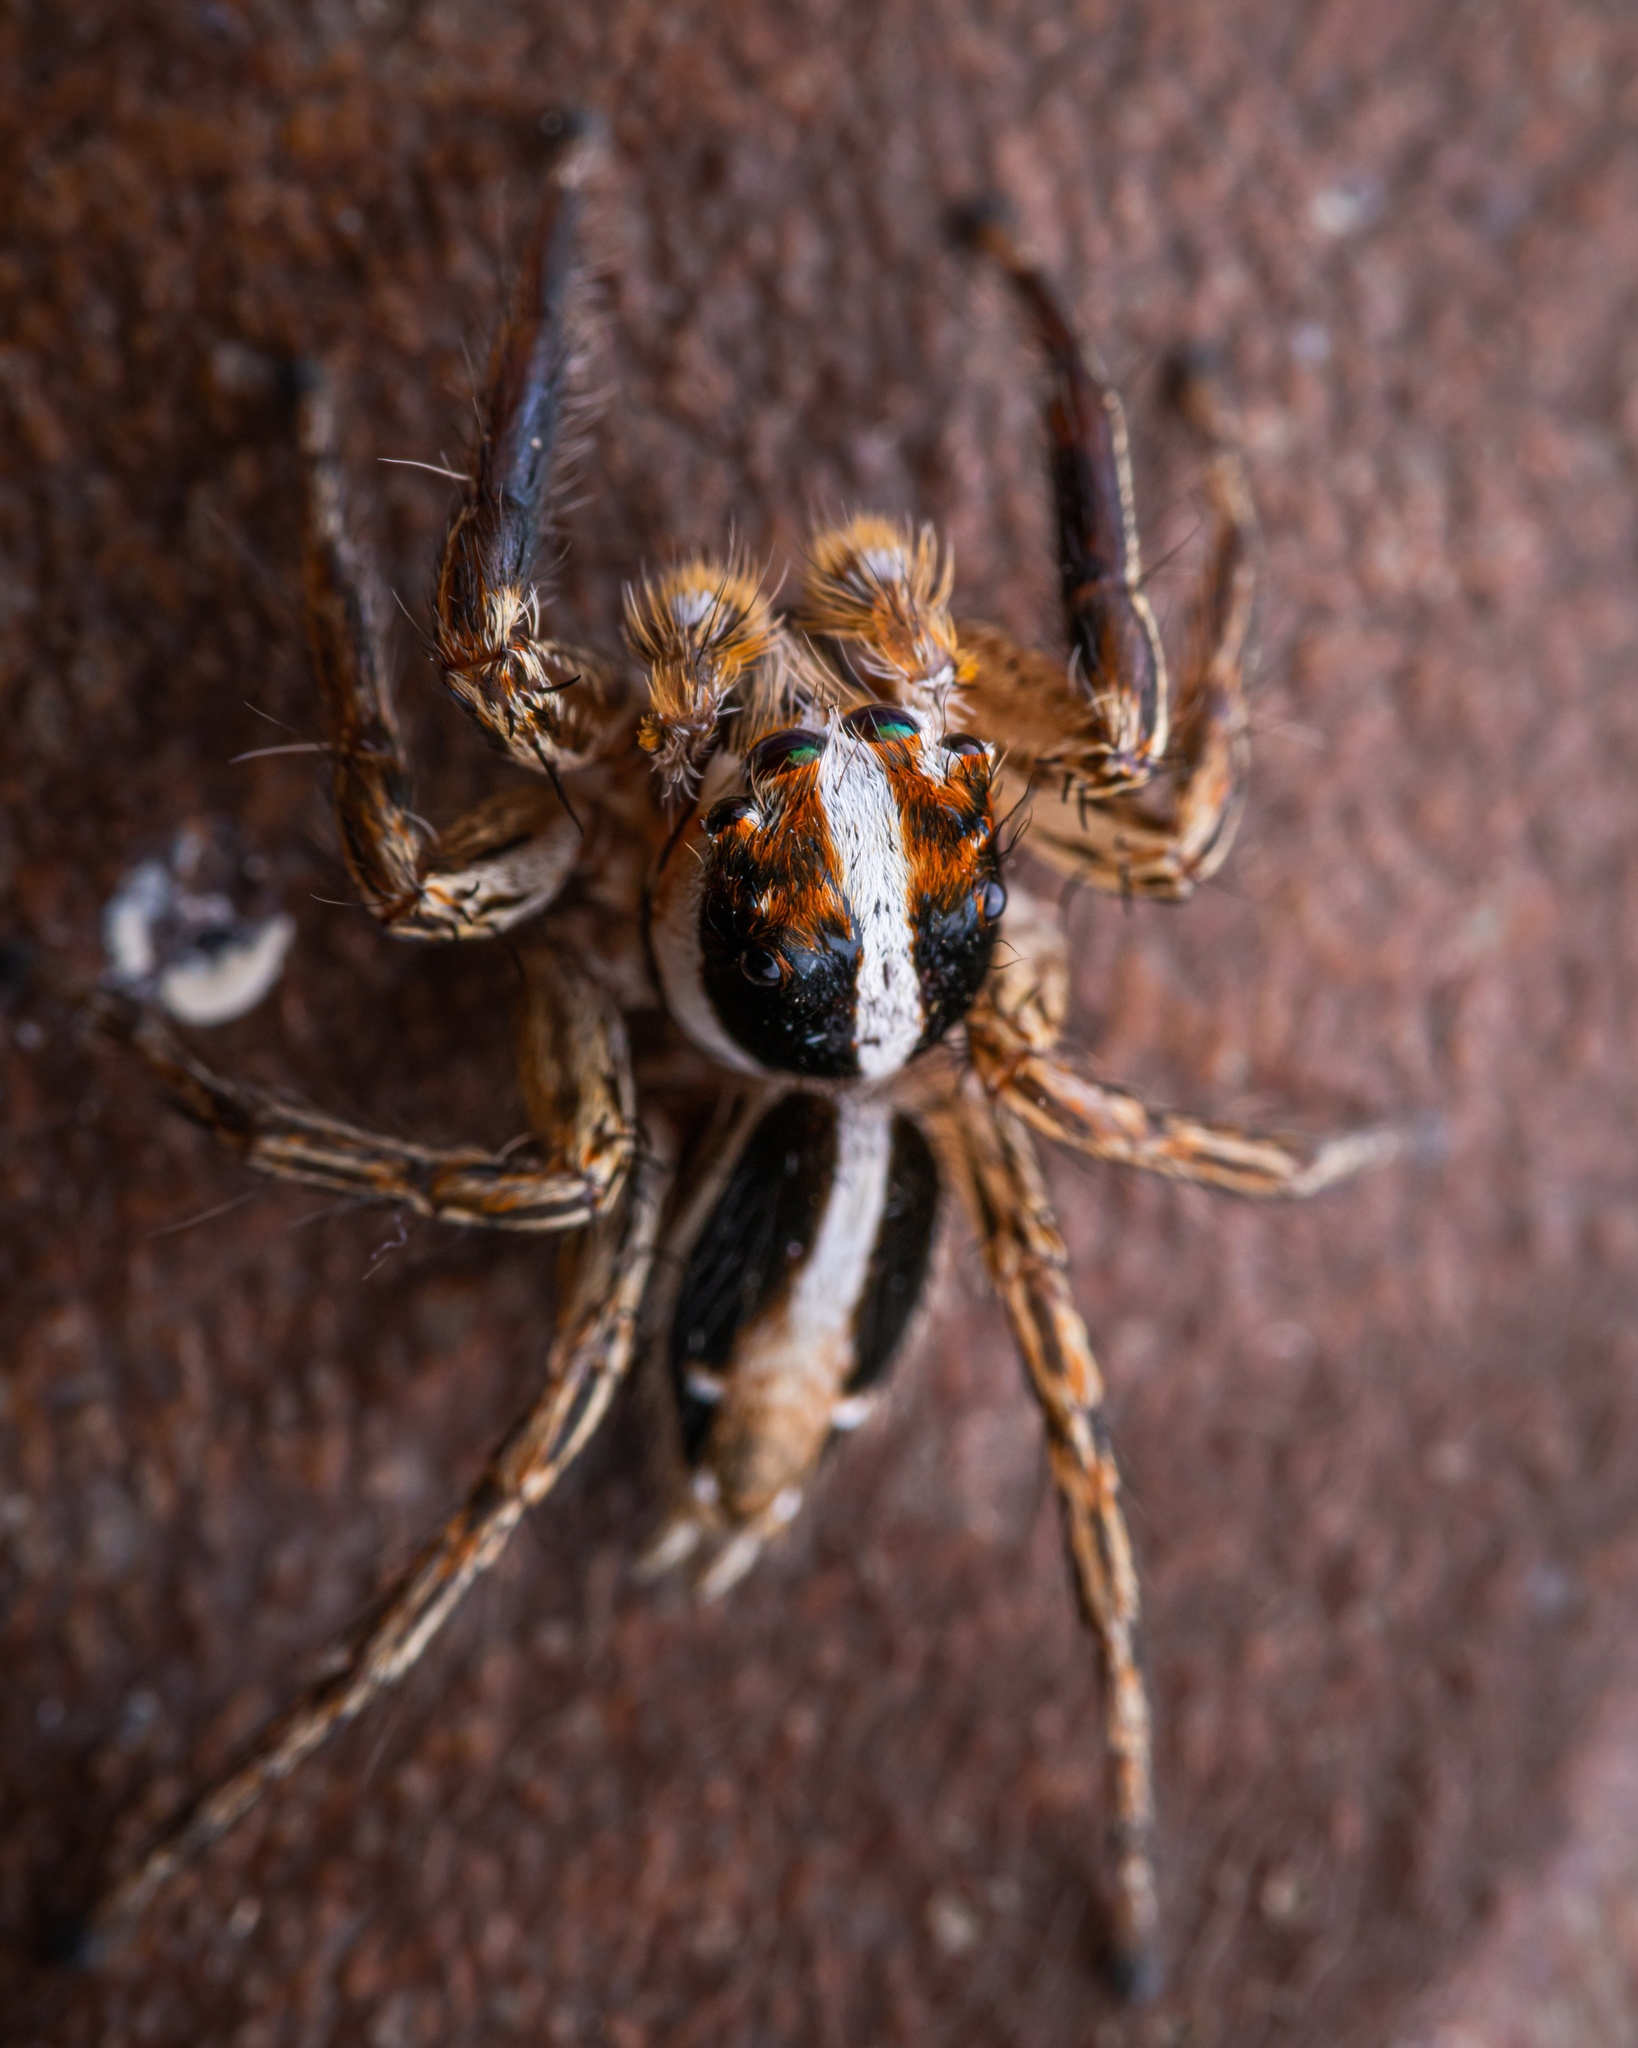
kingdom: Animalia
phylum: Arthropoda
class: Arachnida
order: Araneae
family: Salticidae
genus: Plexippus
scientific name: Plexippus paykulli
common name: Pantropical jumper
